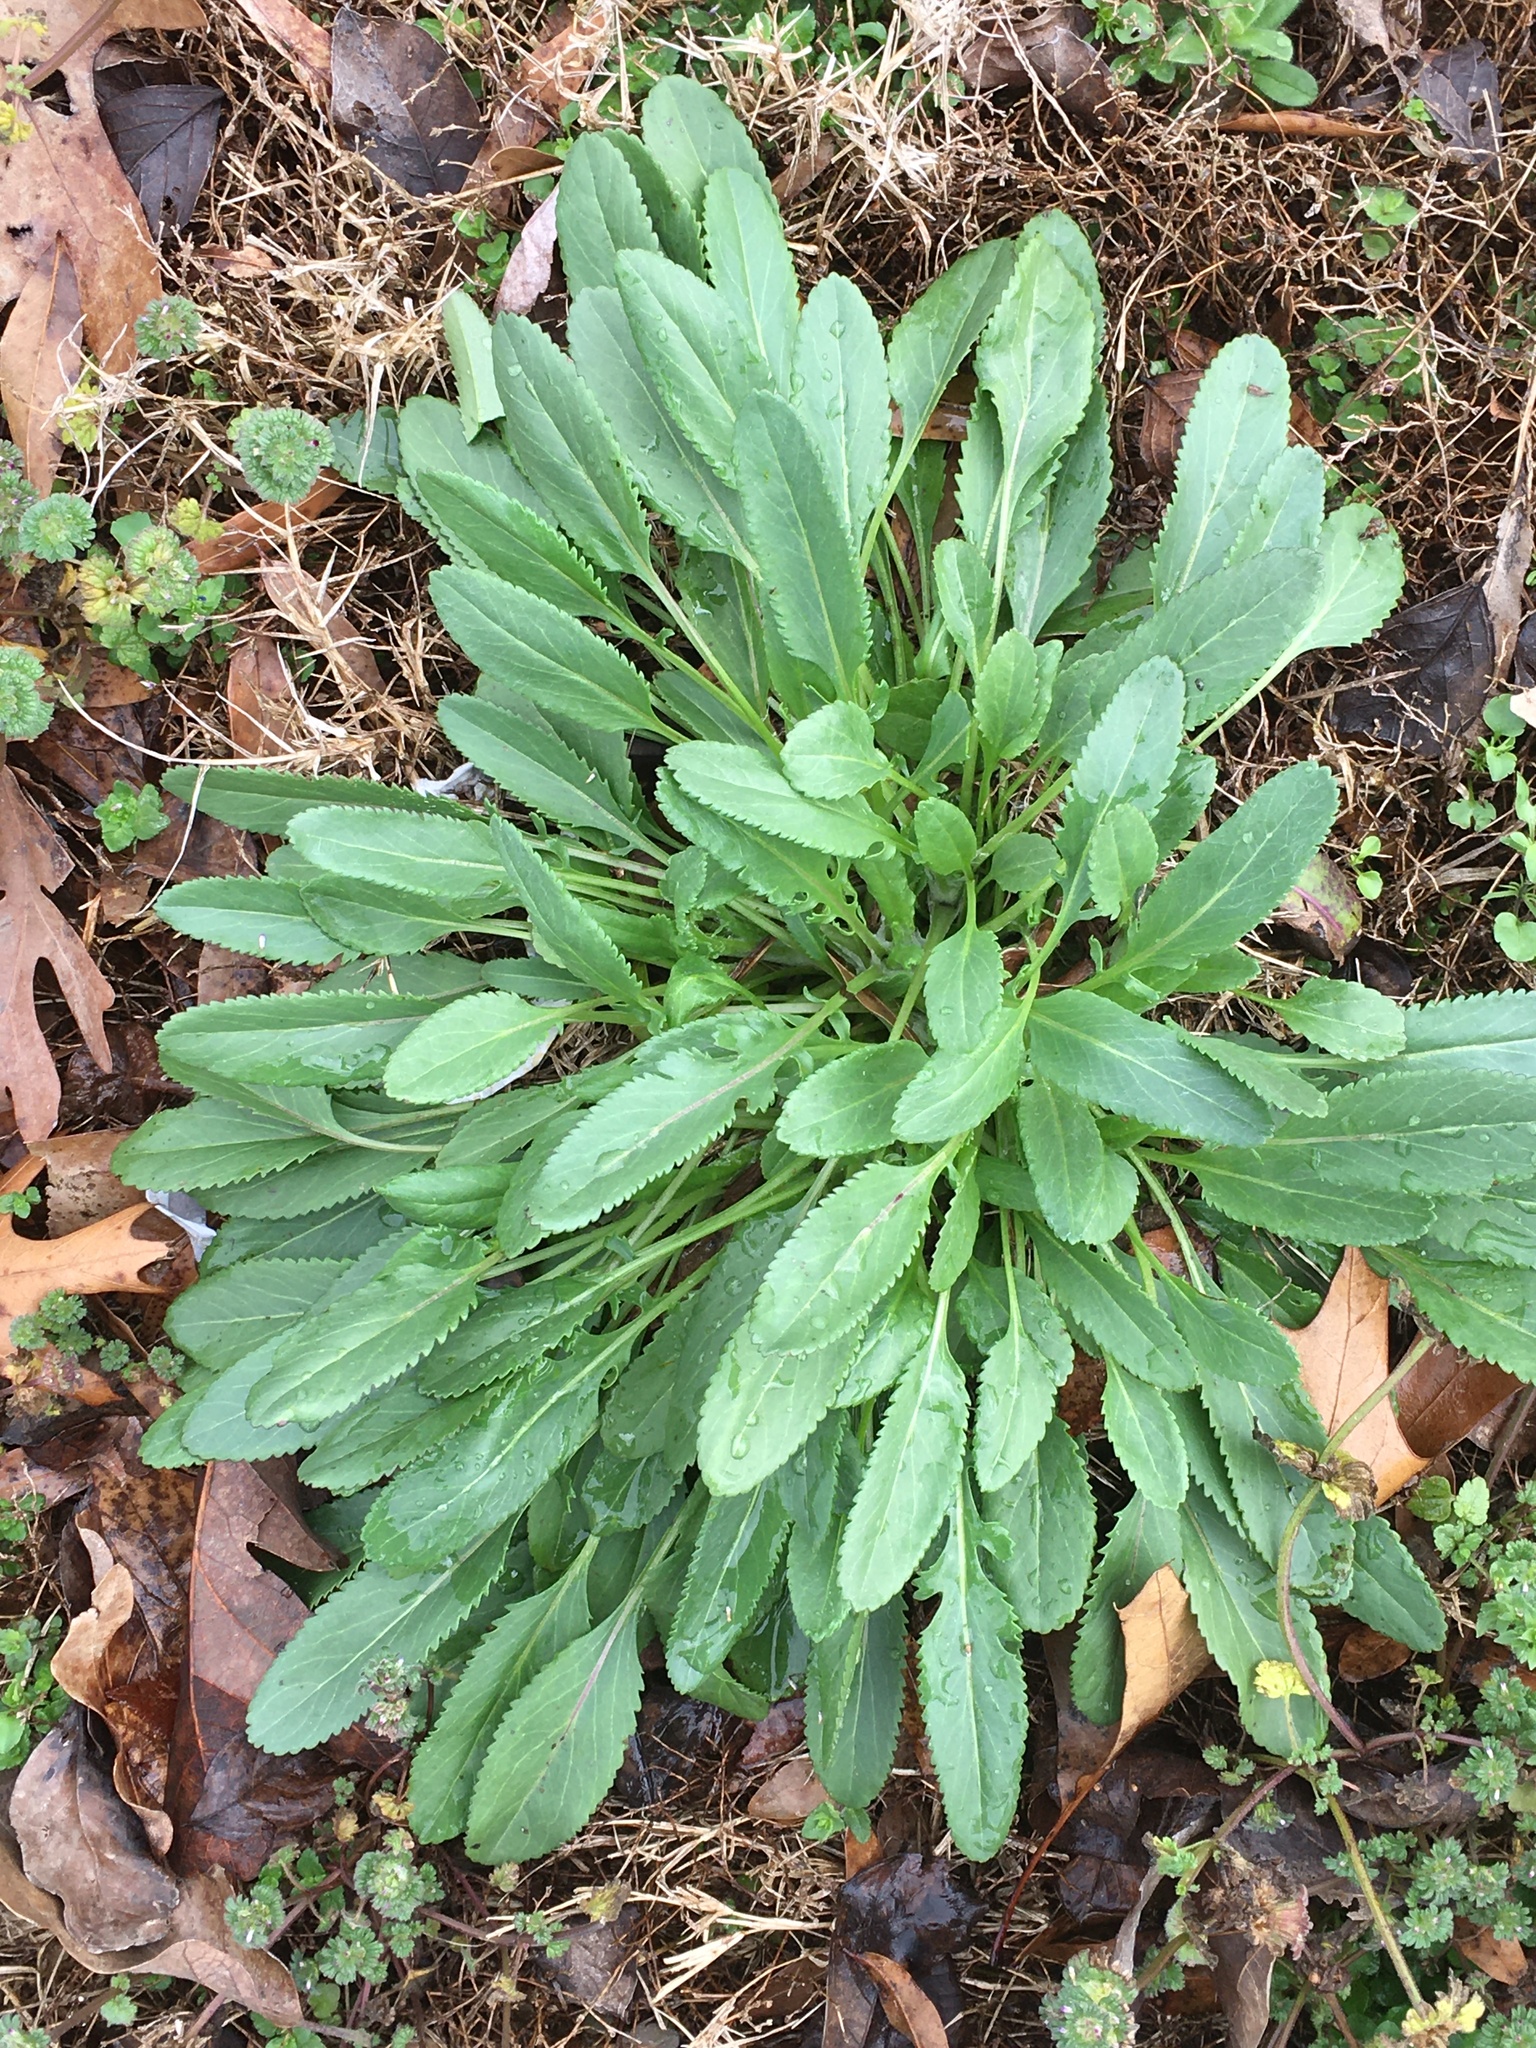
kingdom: Plantae
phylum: Tracheophyta
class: Magnoliopsida
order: Asterales
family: Asteraceae
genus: Packera
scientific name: Packera anonyma
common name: Small ragwort
